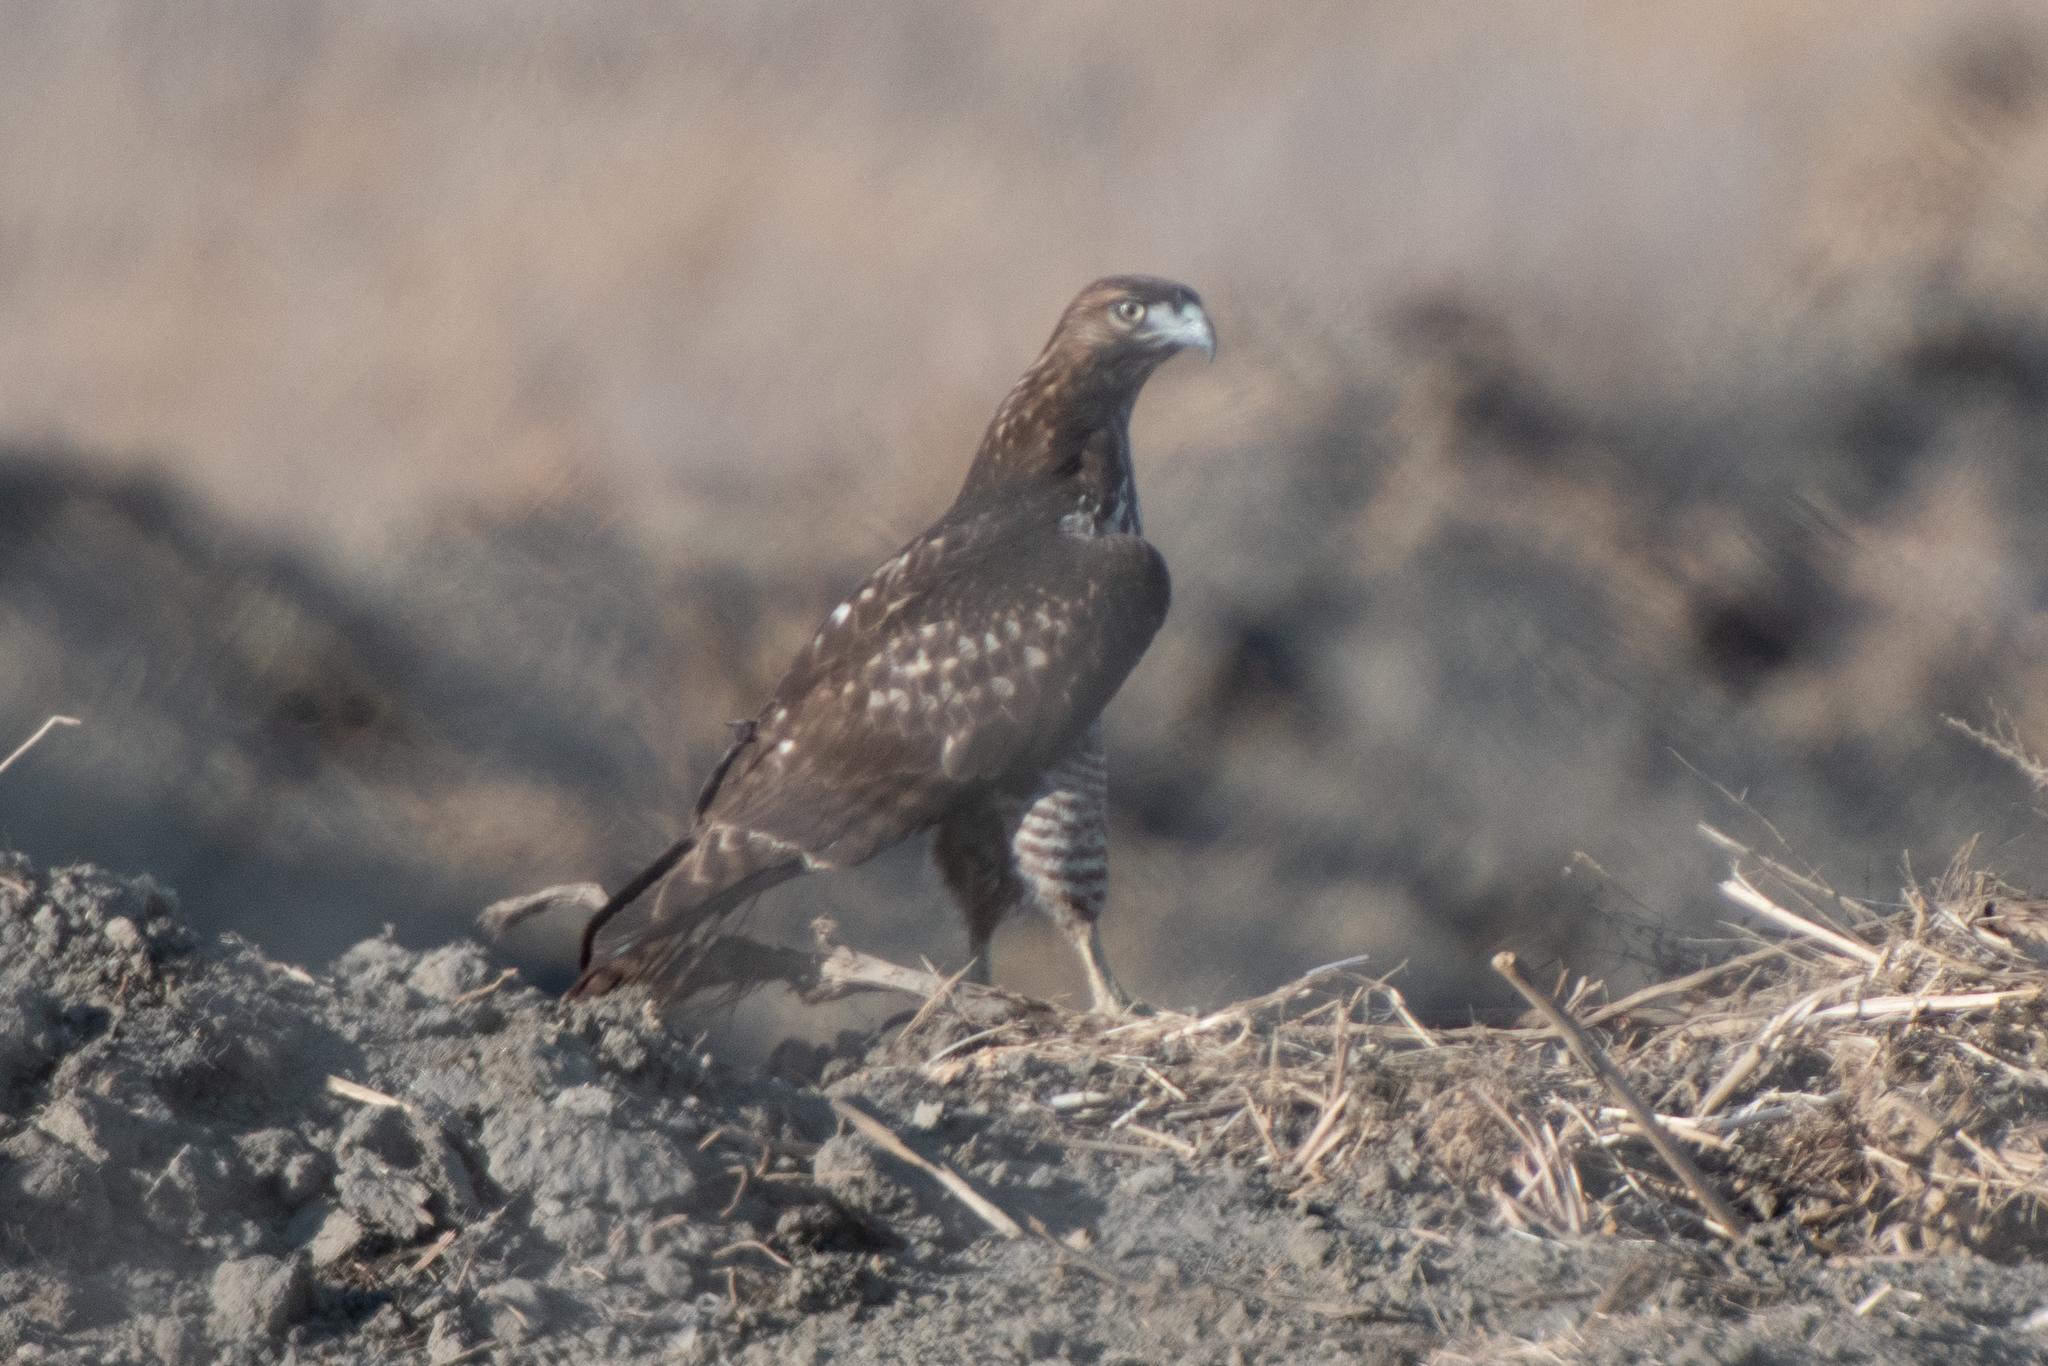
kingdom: Animalia
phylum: Chordata
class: Aves
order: Accipitriformes
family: Accipitridae
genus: Buteo
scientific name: Buteo jamaicensis
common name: Red-tailed hawk
